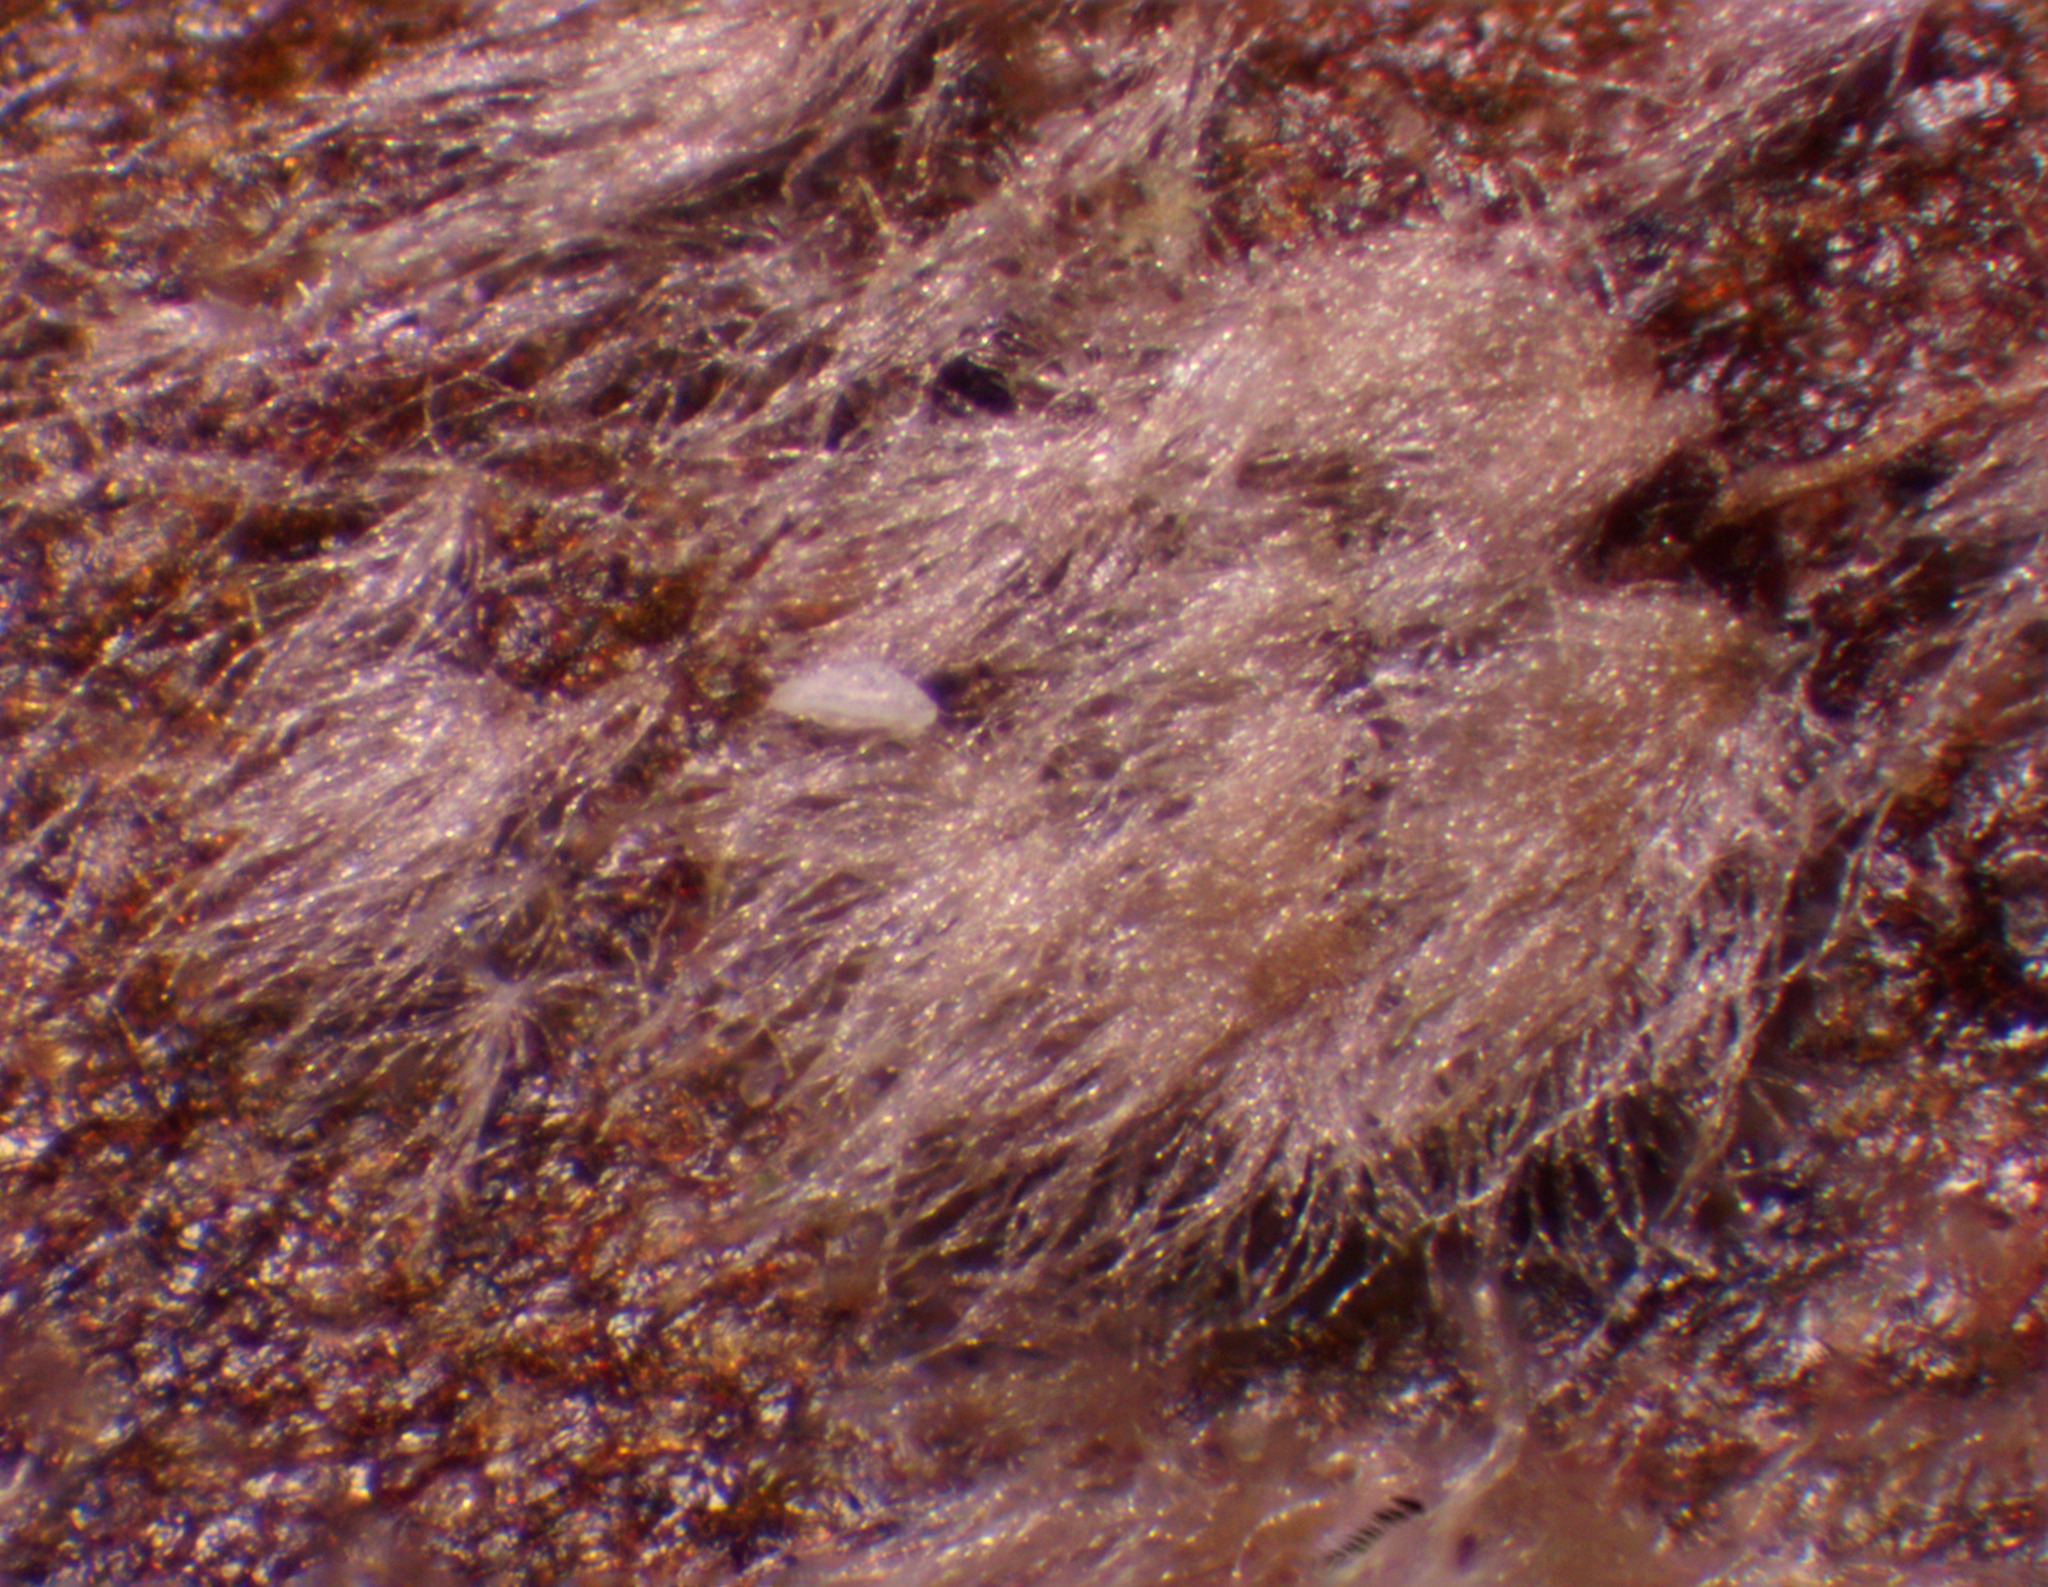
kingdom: Fungi
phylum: Ascomycota
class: Leotiomycetes
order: Helotiales
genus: Thedgonia
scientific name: Thedgonia ligustrina
